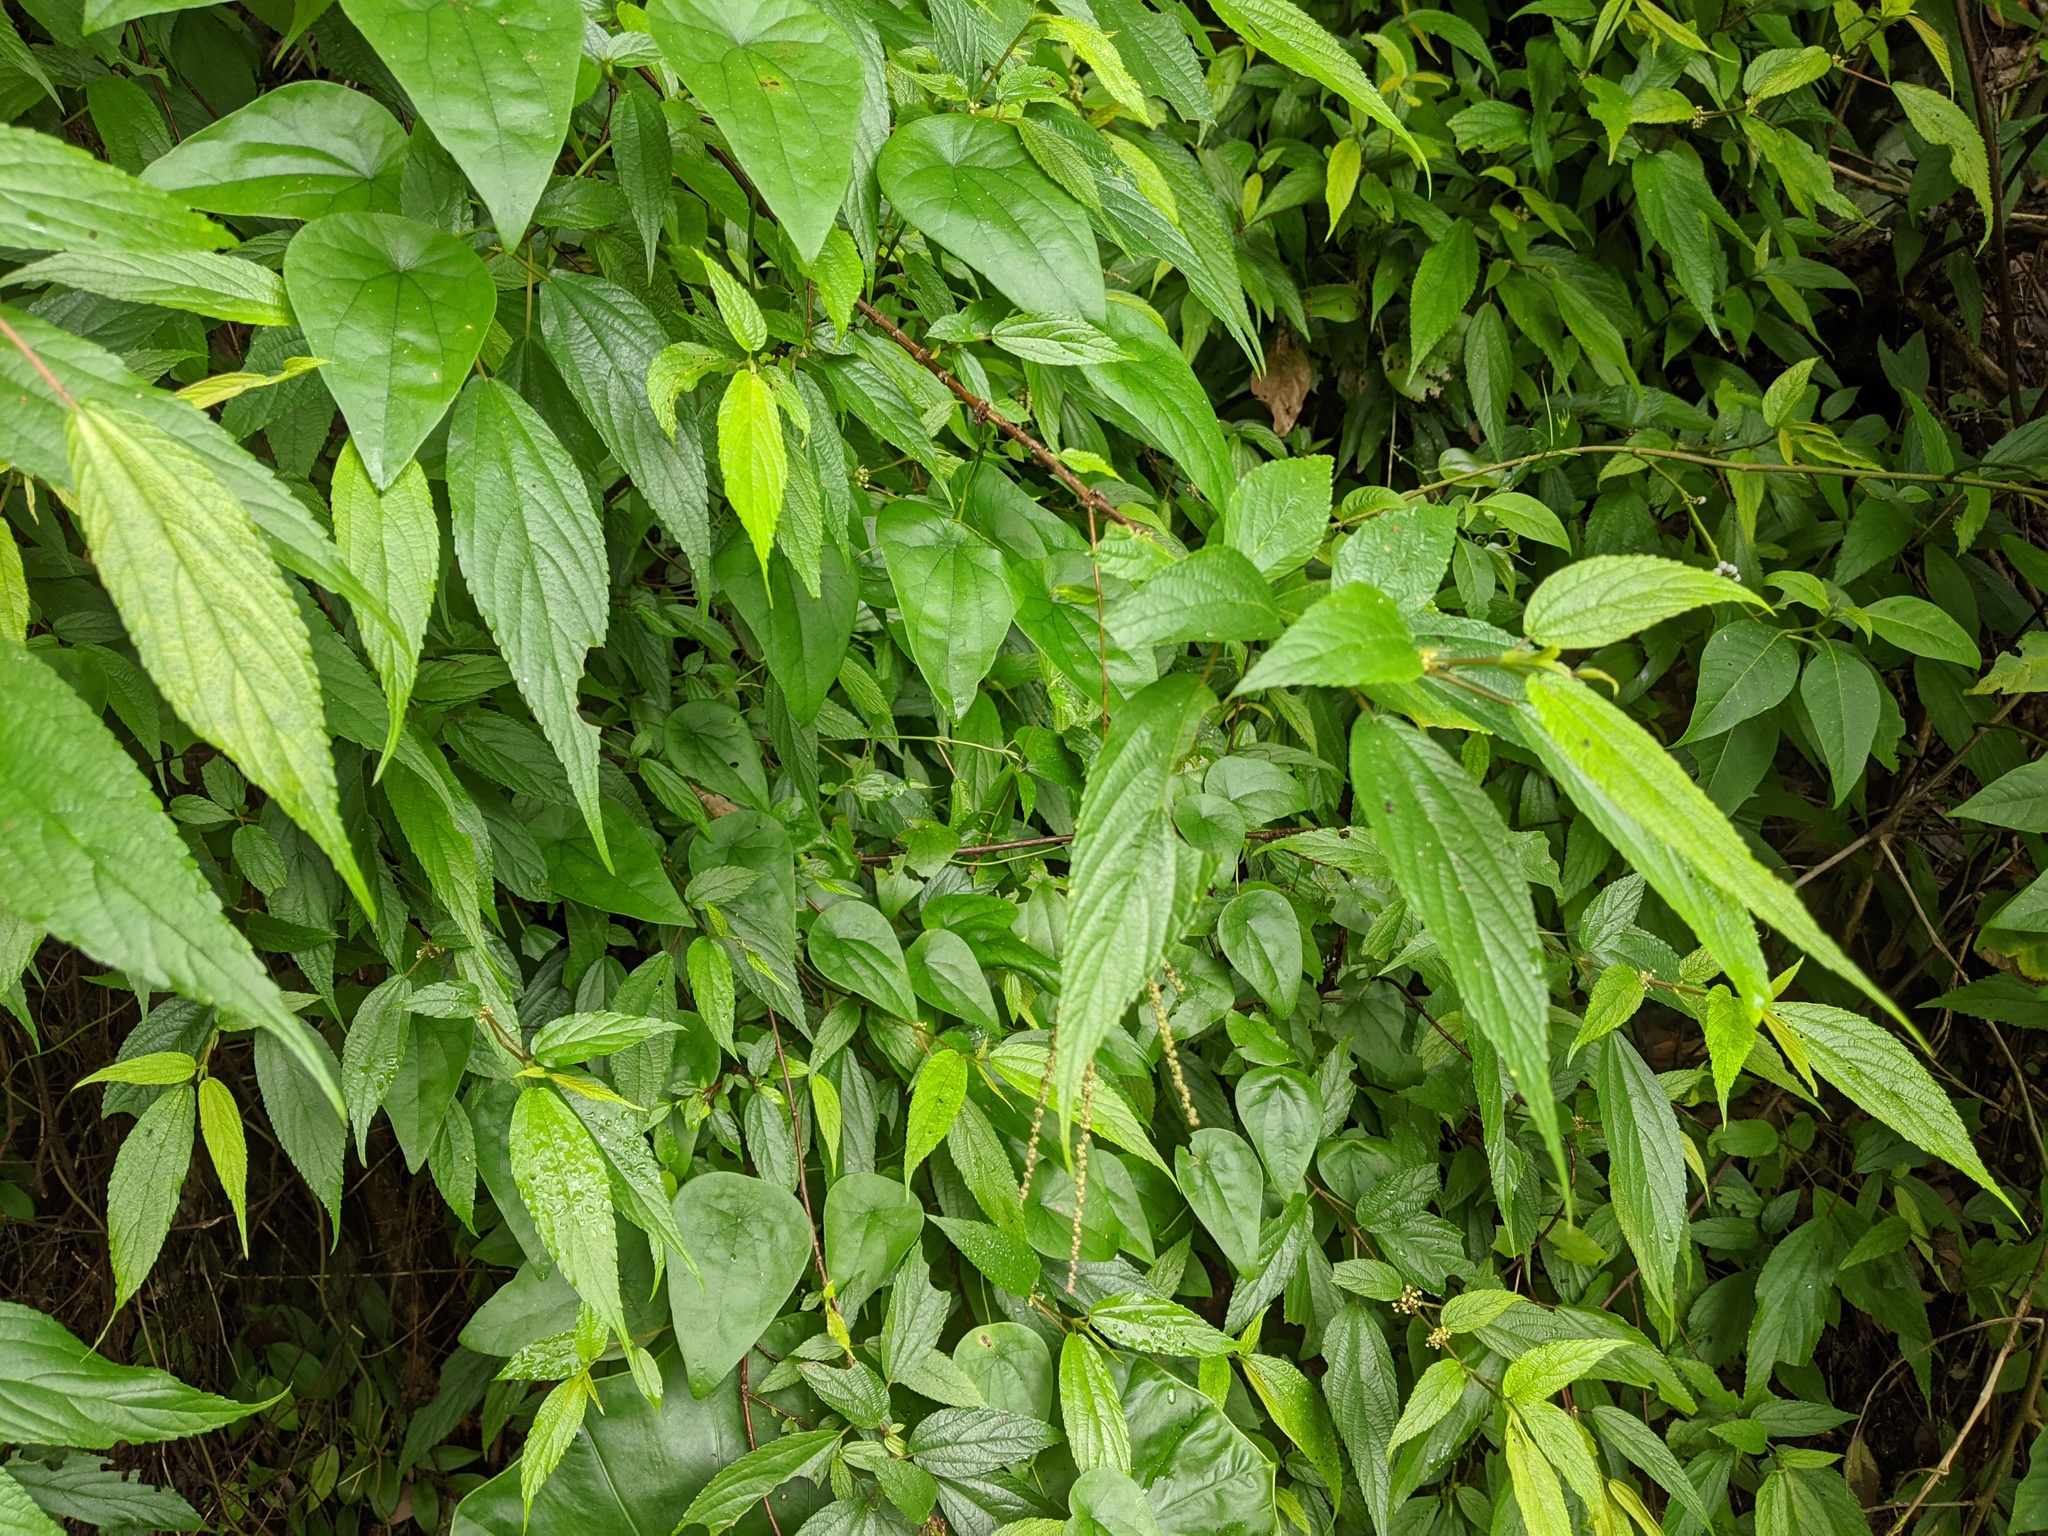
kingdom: Plantae
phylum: Tracheophyta
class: Magnoliopsida
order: Rosales
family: Urticaceae
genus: Boehmeria
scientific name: Boehmeria zollingeriana
